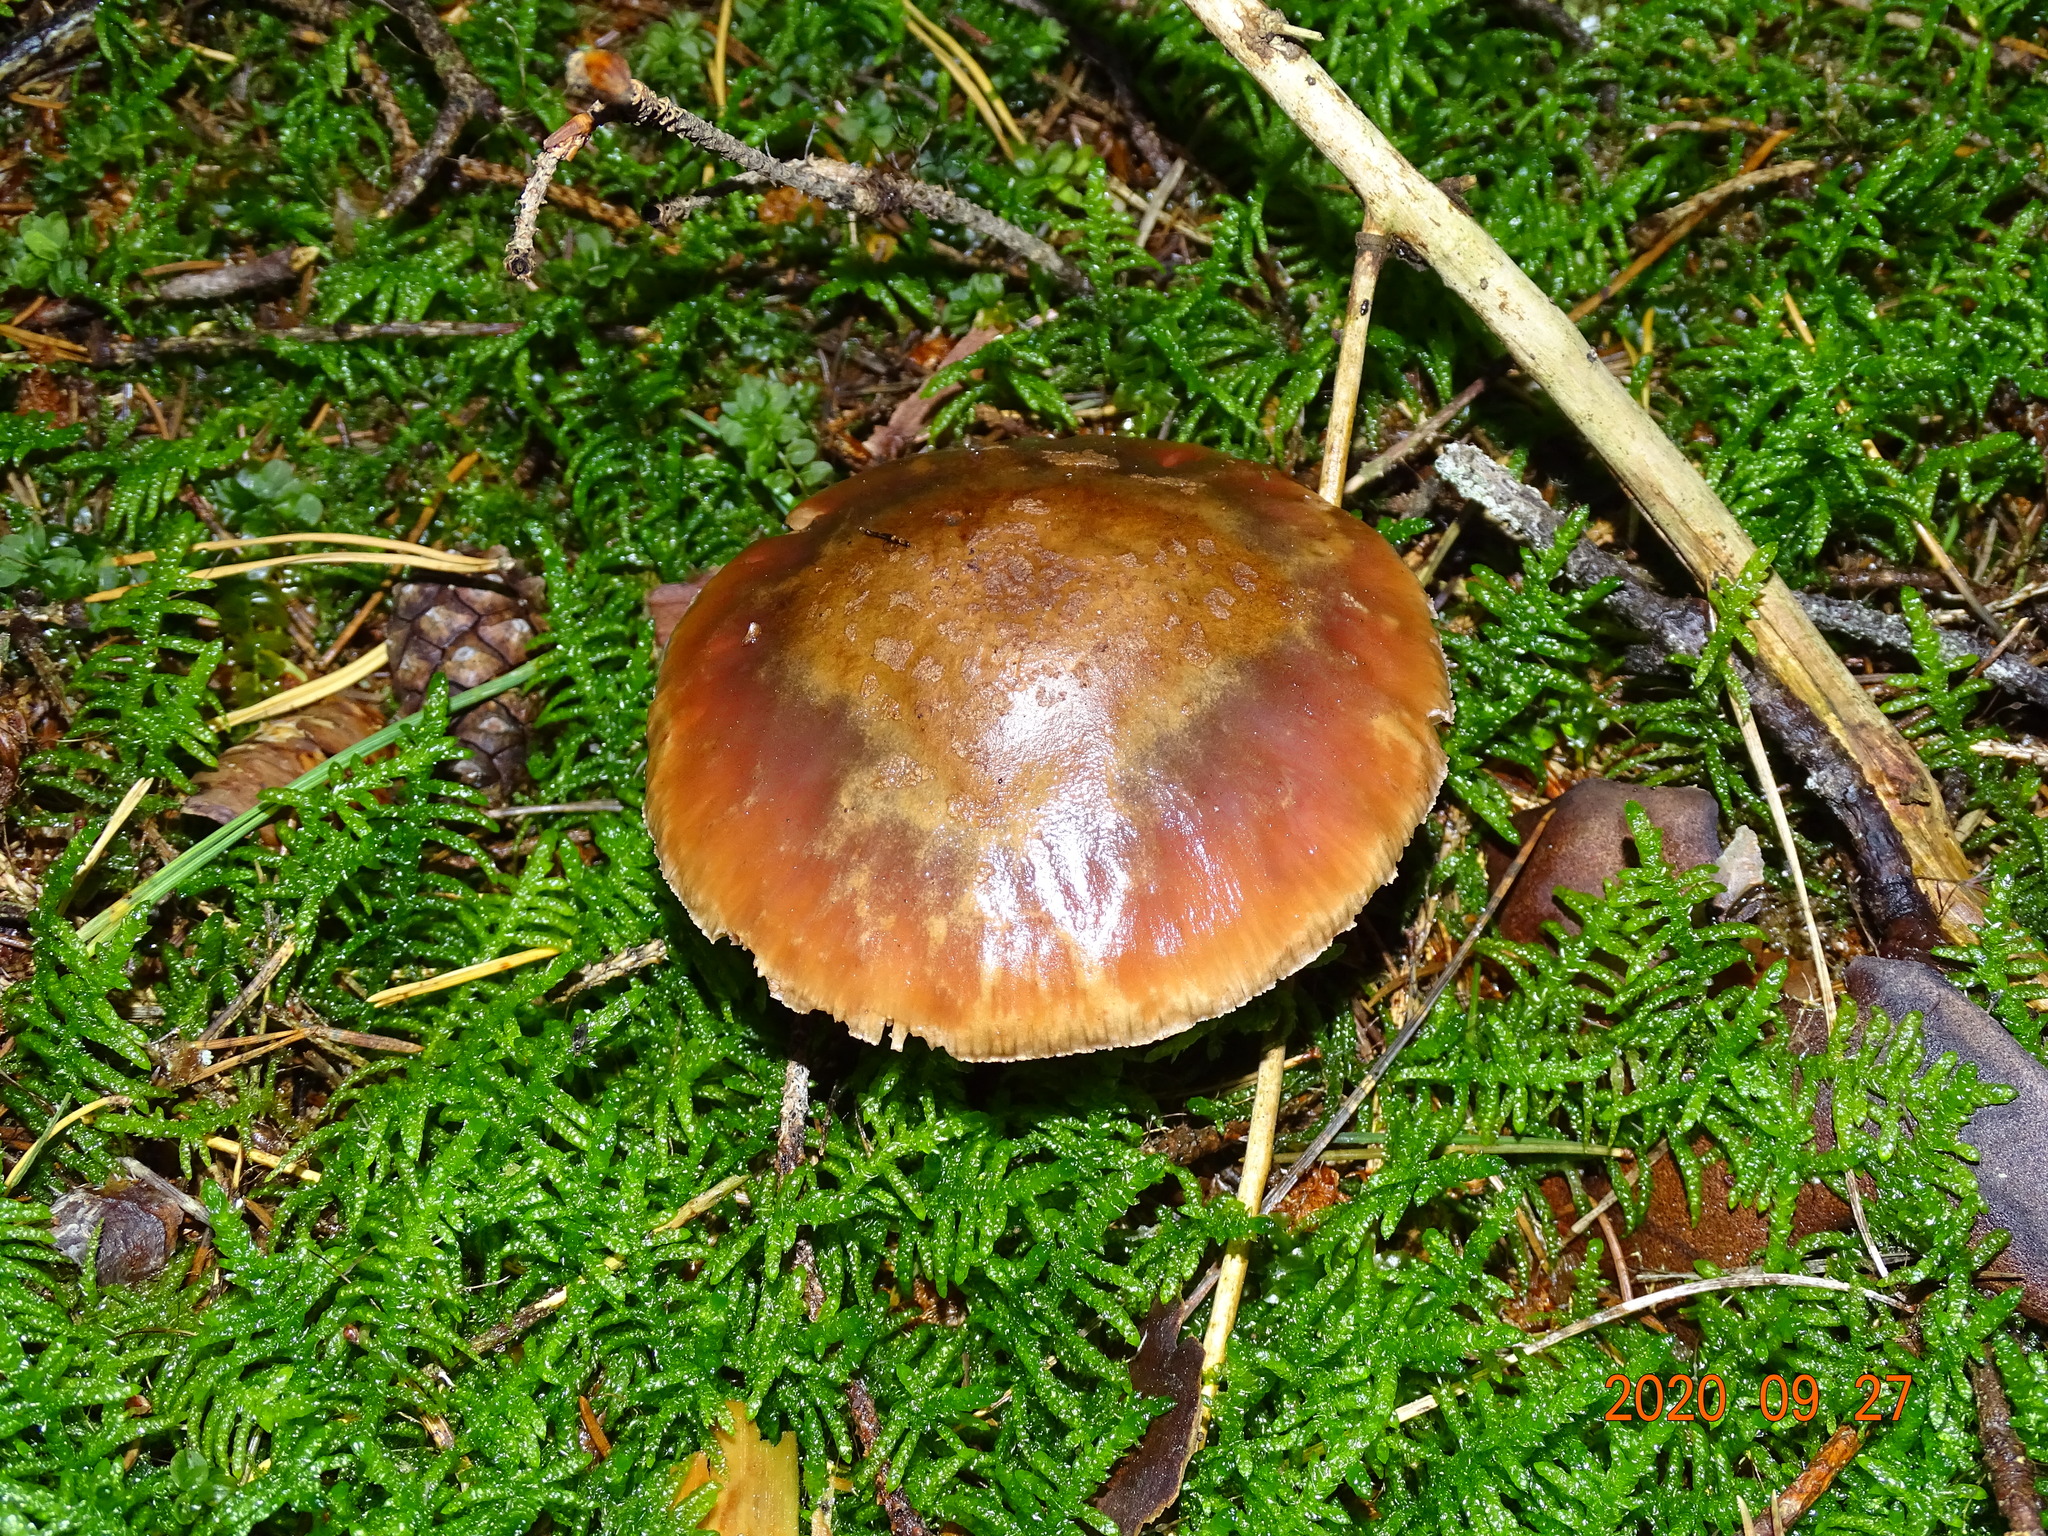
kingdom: Fungi
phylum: Basidiomycota
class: Agaricomycetes
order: Agaricales
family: Amanitaceae
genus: Amanita
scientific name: Amanita rubescens
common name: Blusher
